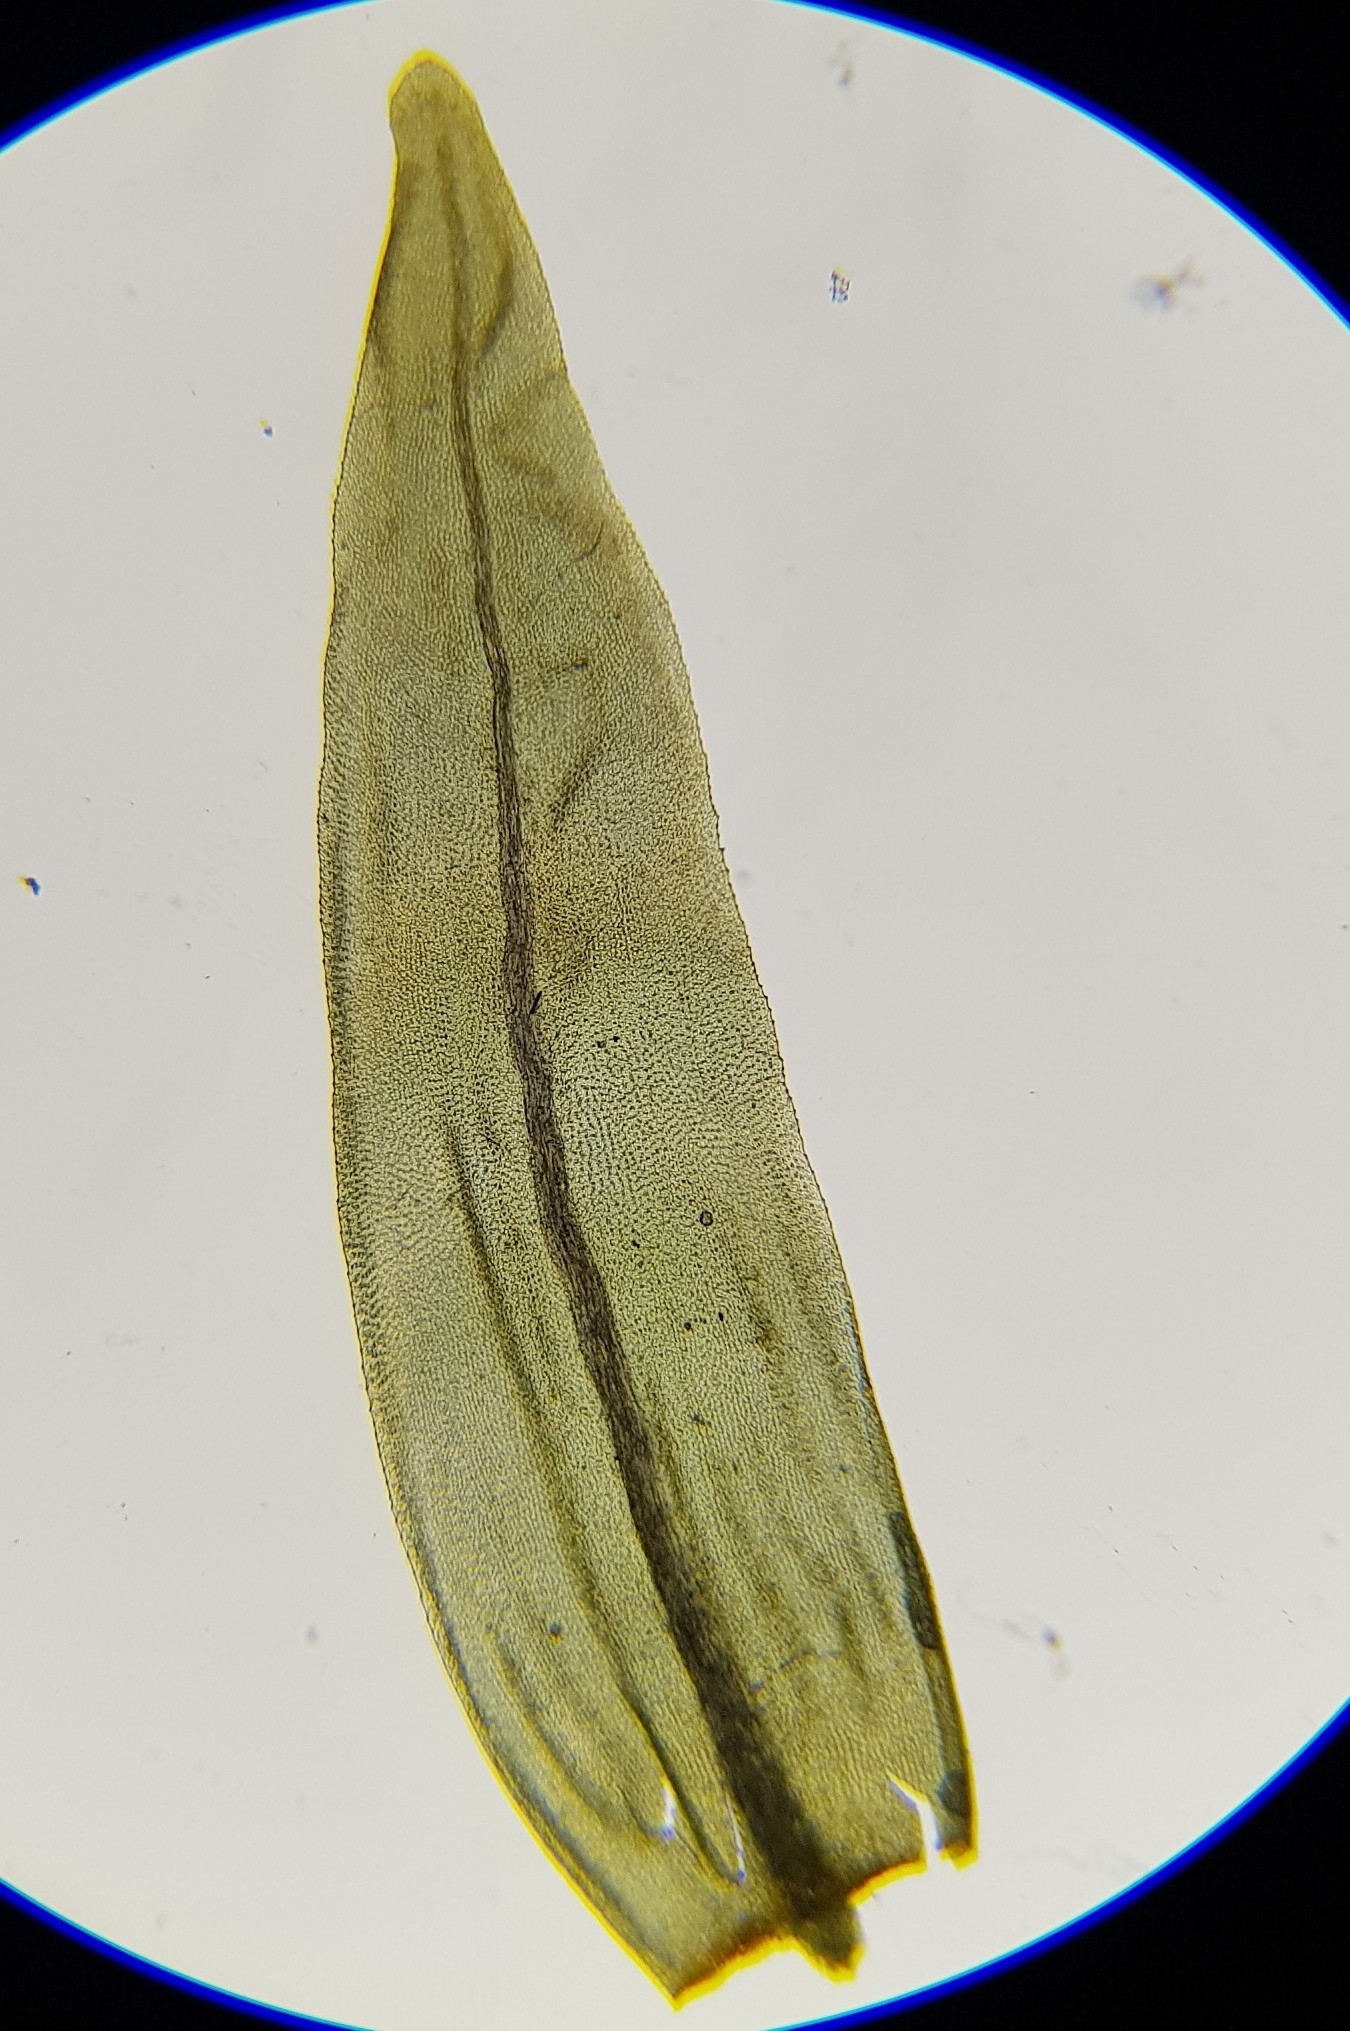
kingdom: Plantae
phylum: Bryophyta
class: Bryopsida
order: Aulacomniales
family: Aulacomniaceae
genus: Aulacomnium
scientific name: Aulacomnium palustre
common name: Bog groove-moss
